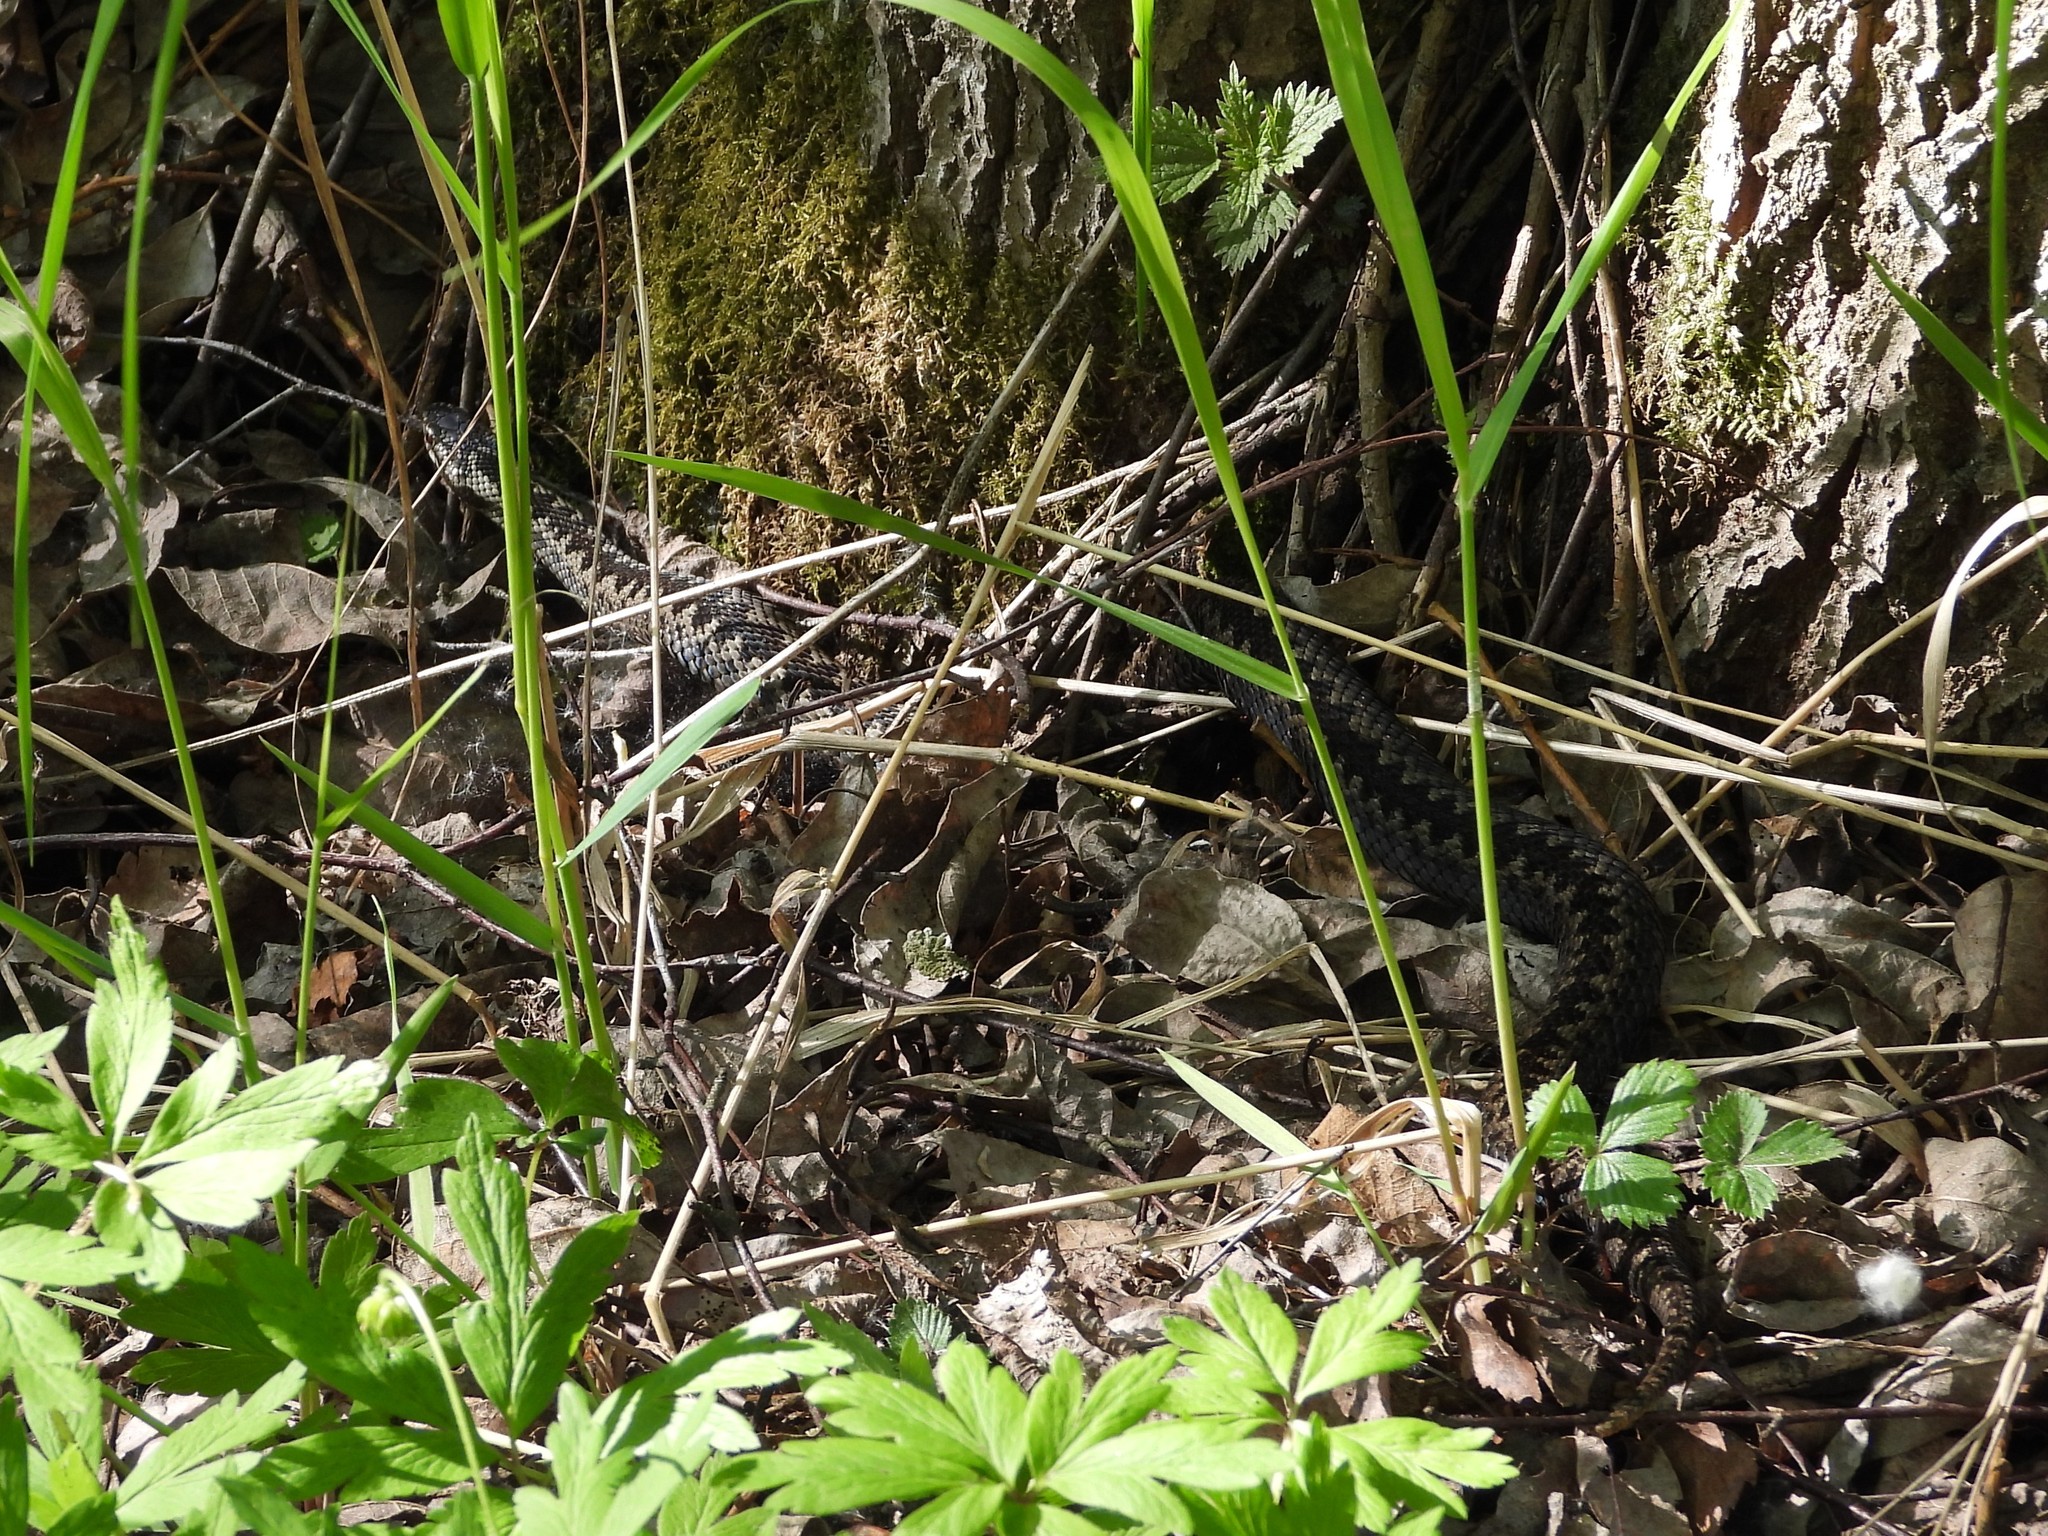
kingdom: Animalia
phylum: Chordata
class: Squamata
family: Viperidae
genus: Vipera
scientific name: Vipera berus
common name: Adder
